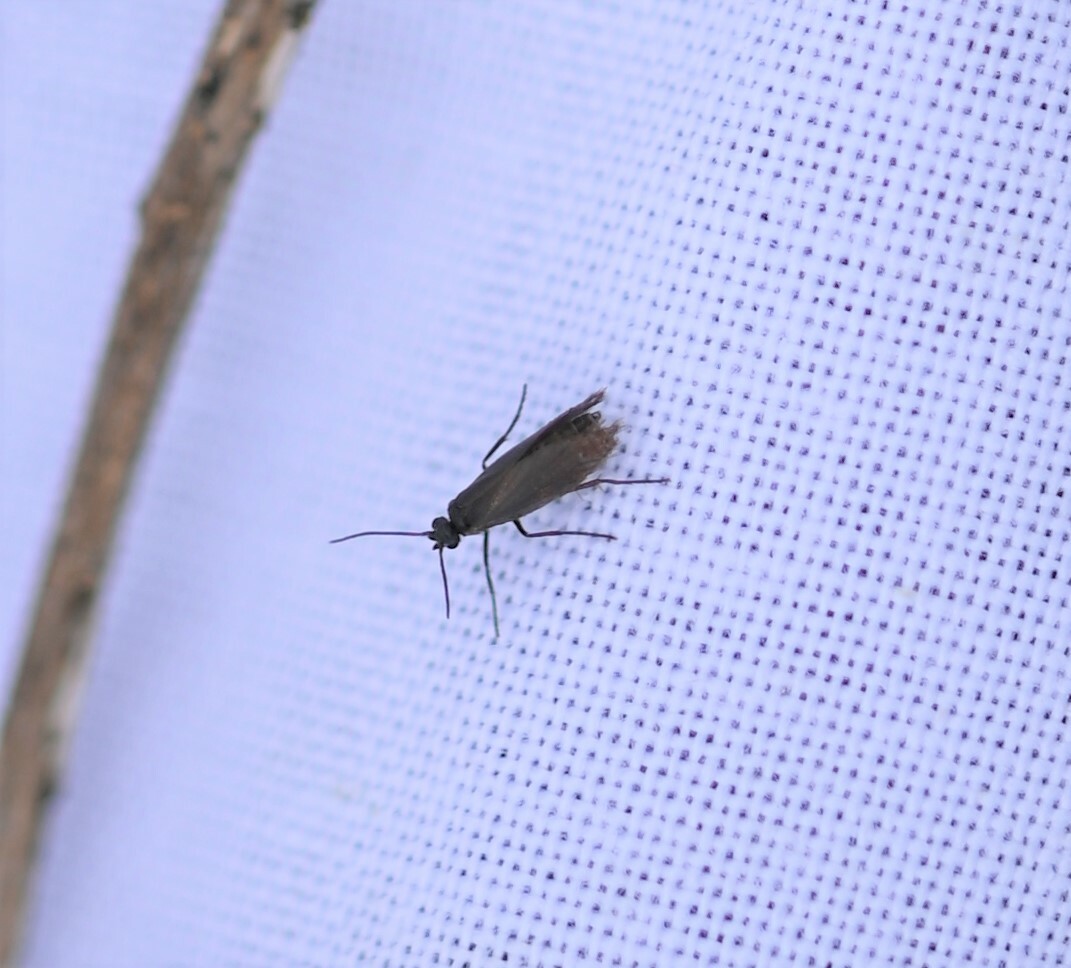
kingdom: Animalia
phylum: Arthropoda
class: Insecta
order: Lepidoptera
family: Micropterigidae
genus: Micropterix
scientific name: Micropterix calthella
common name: Plain gold
